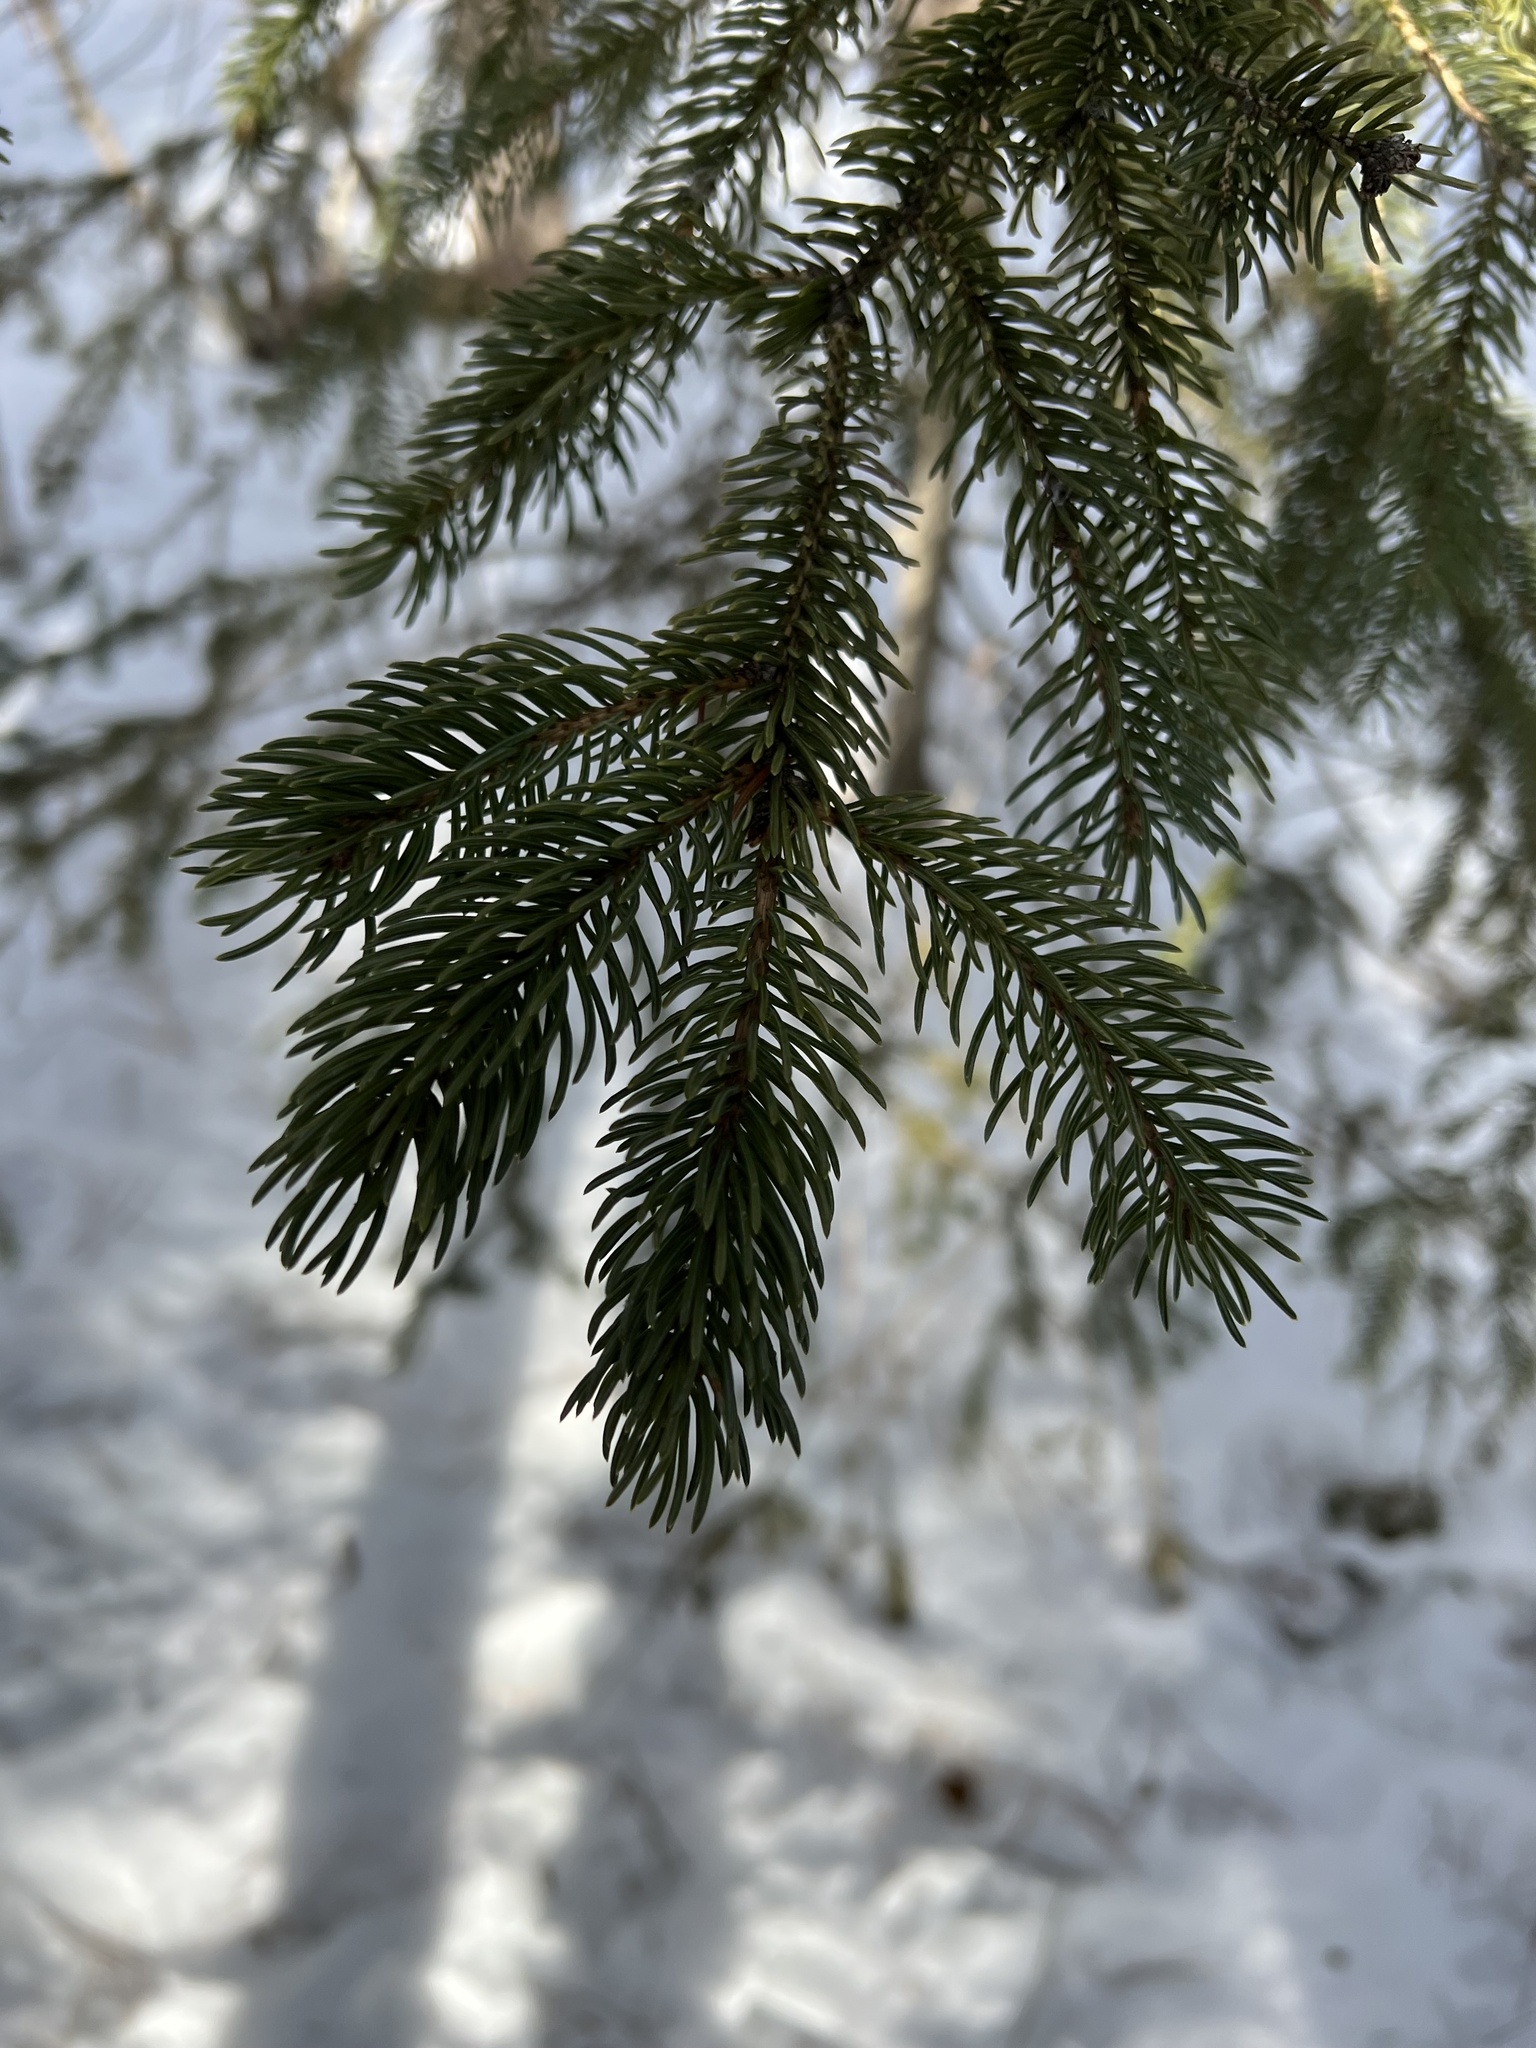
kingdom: Plantae
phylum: Tracheophyta
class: Pinopsida
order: Pinales
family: Pinaceae
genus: Picea
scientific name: Picea glauca
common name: White spruce
